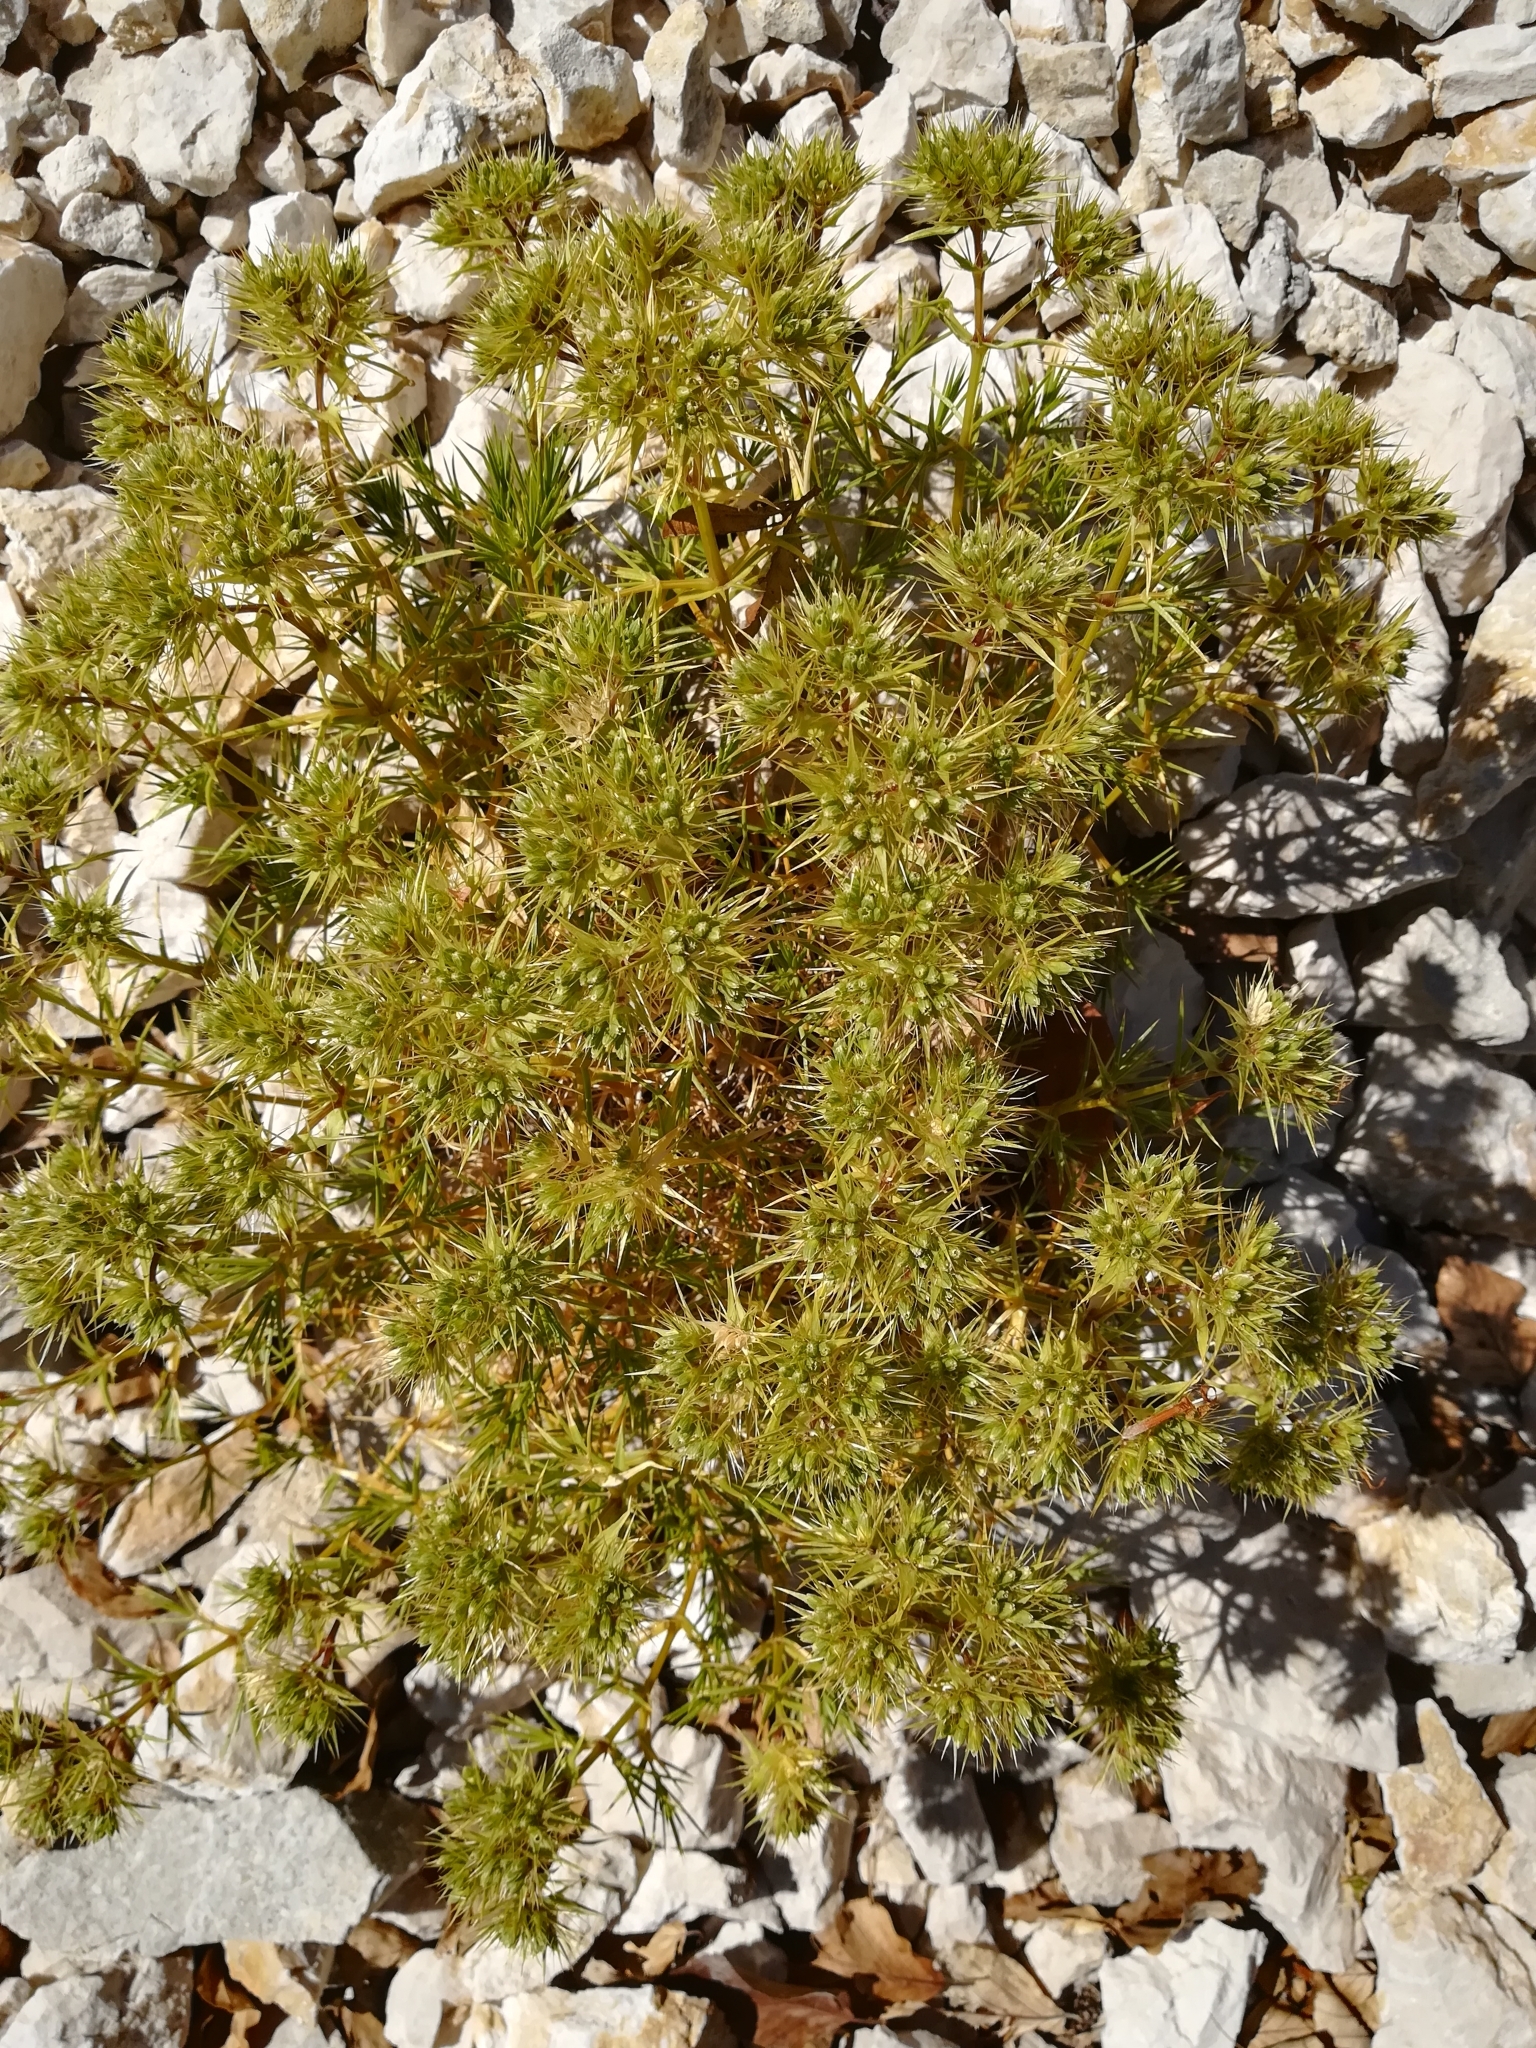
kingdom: Plantae
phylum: Tracheophyta
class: Magnoliopsida
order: Caryophyllales
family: Caryophyllaceae
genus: Drypis
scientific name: Drypis spinosa
